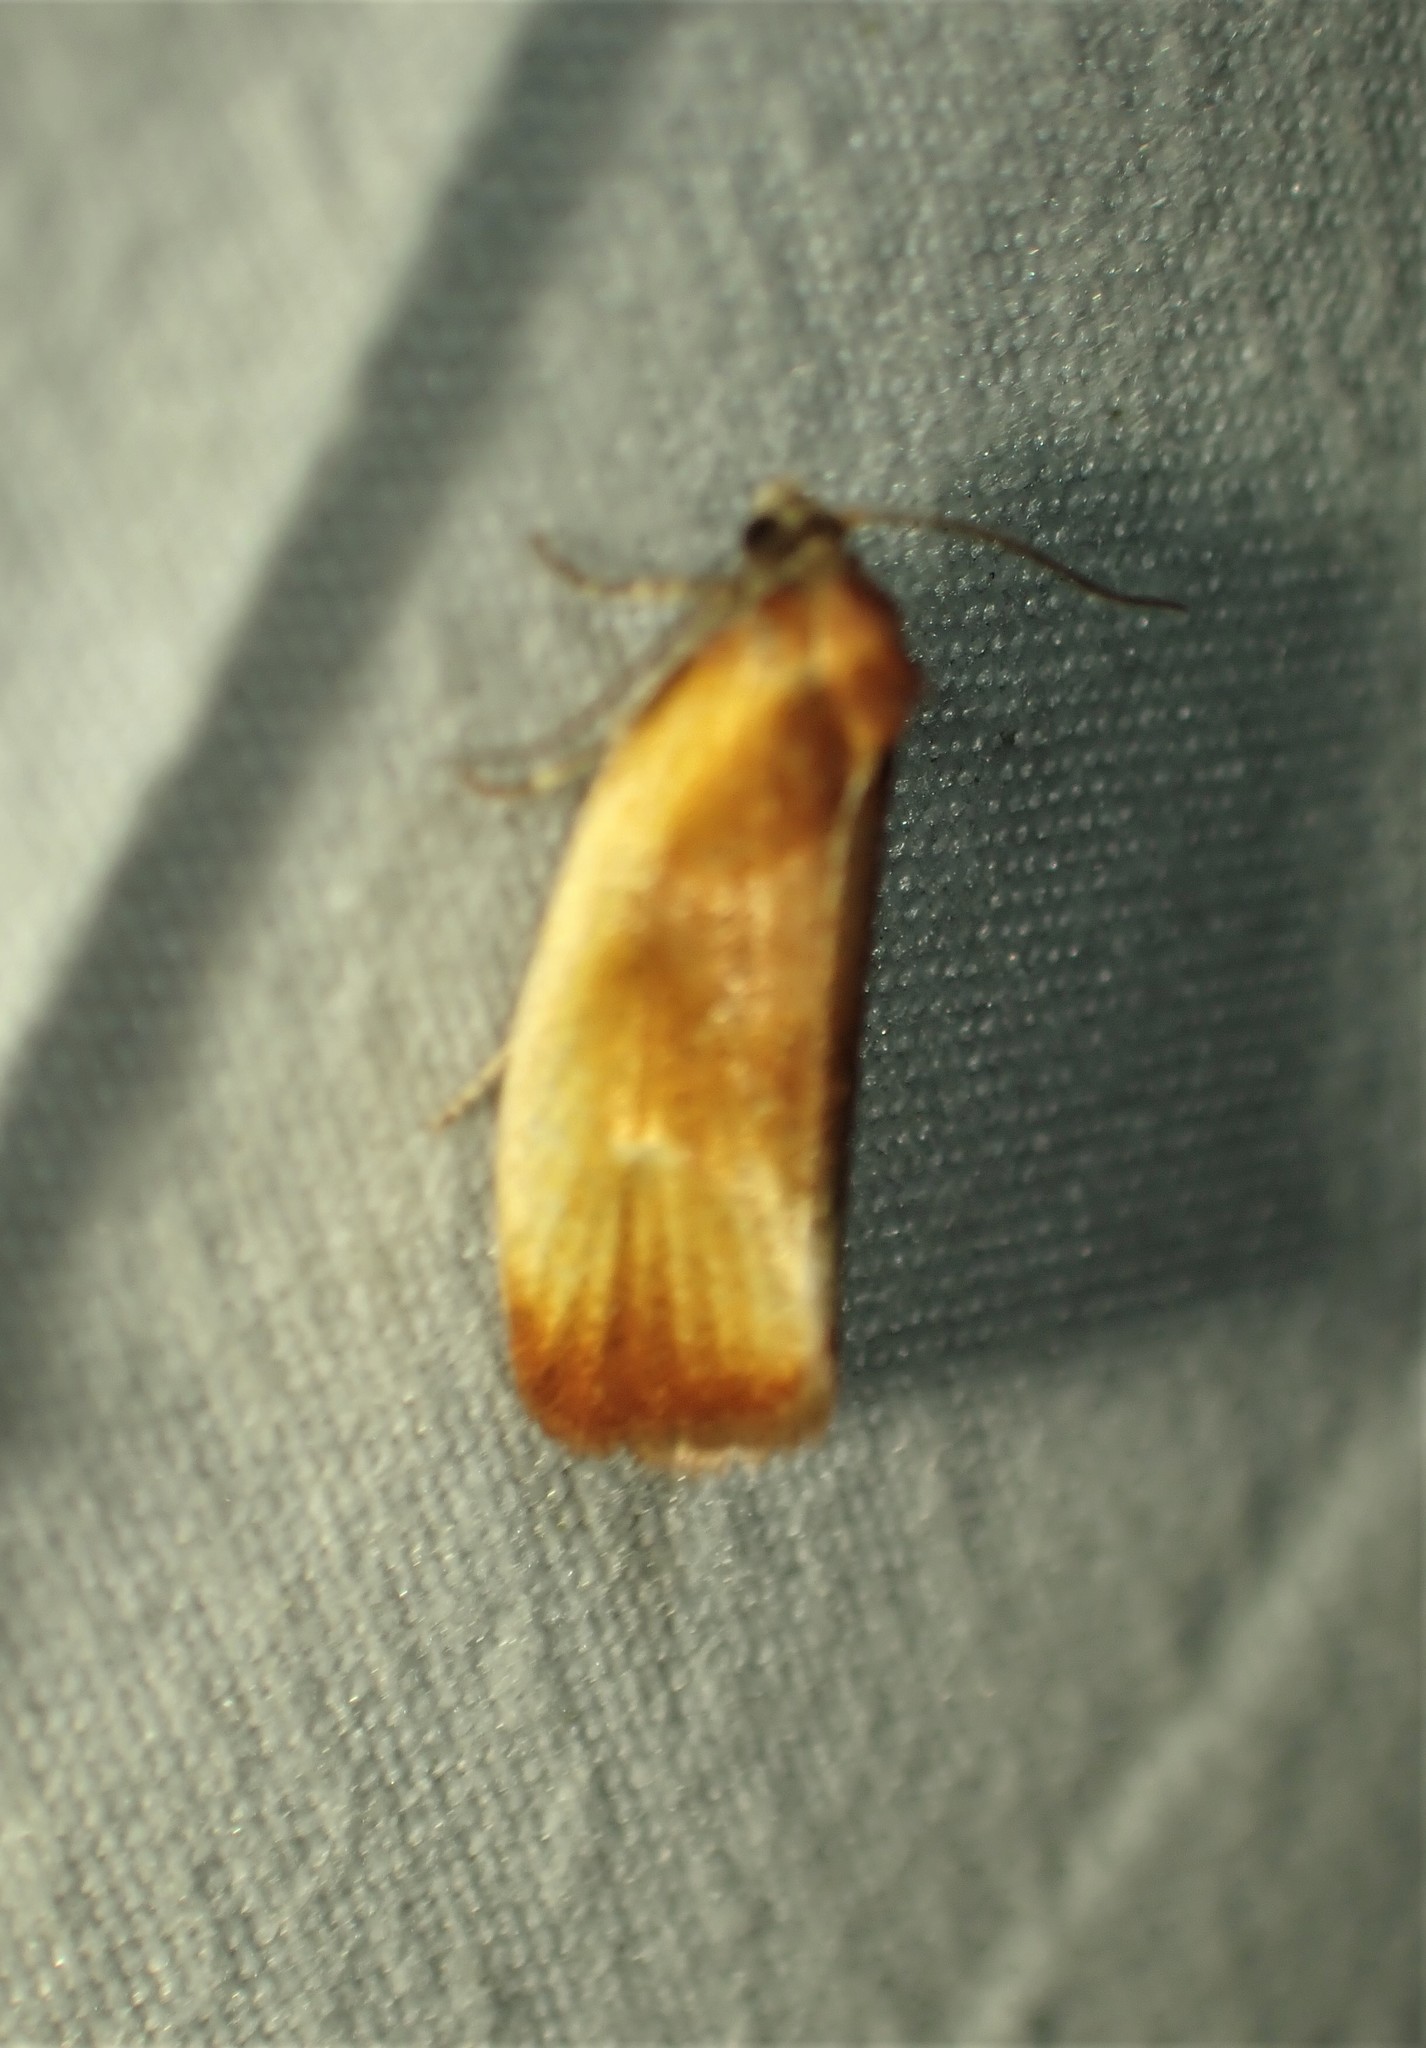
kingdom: Animalia
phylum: Arthropoda
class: Insecta
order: Lepidoptera
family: Tortricidae
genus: Eulia
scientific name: Eulia ministrana
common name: Brassy twist
